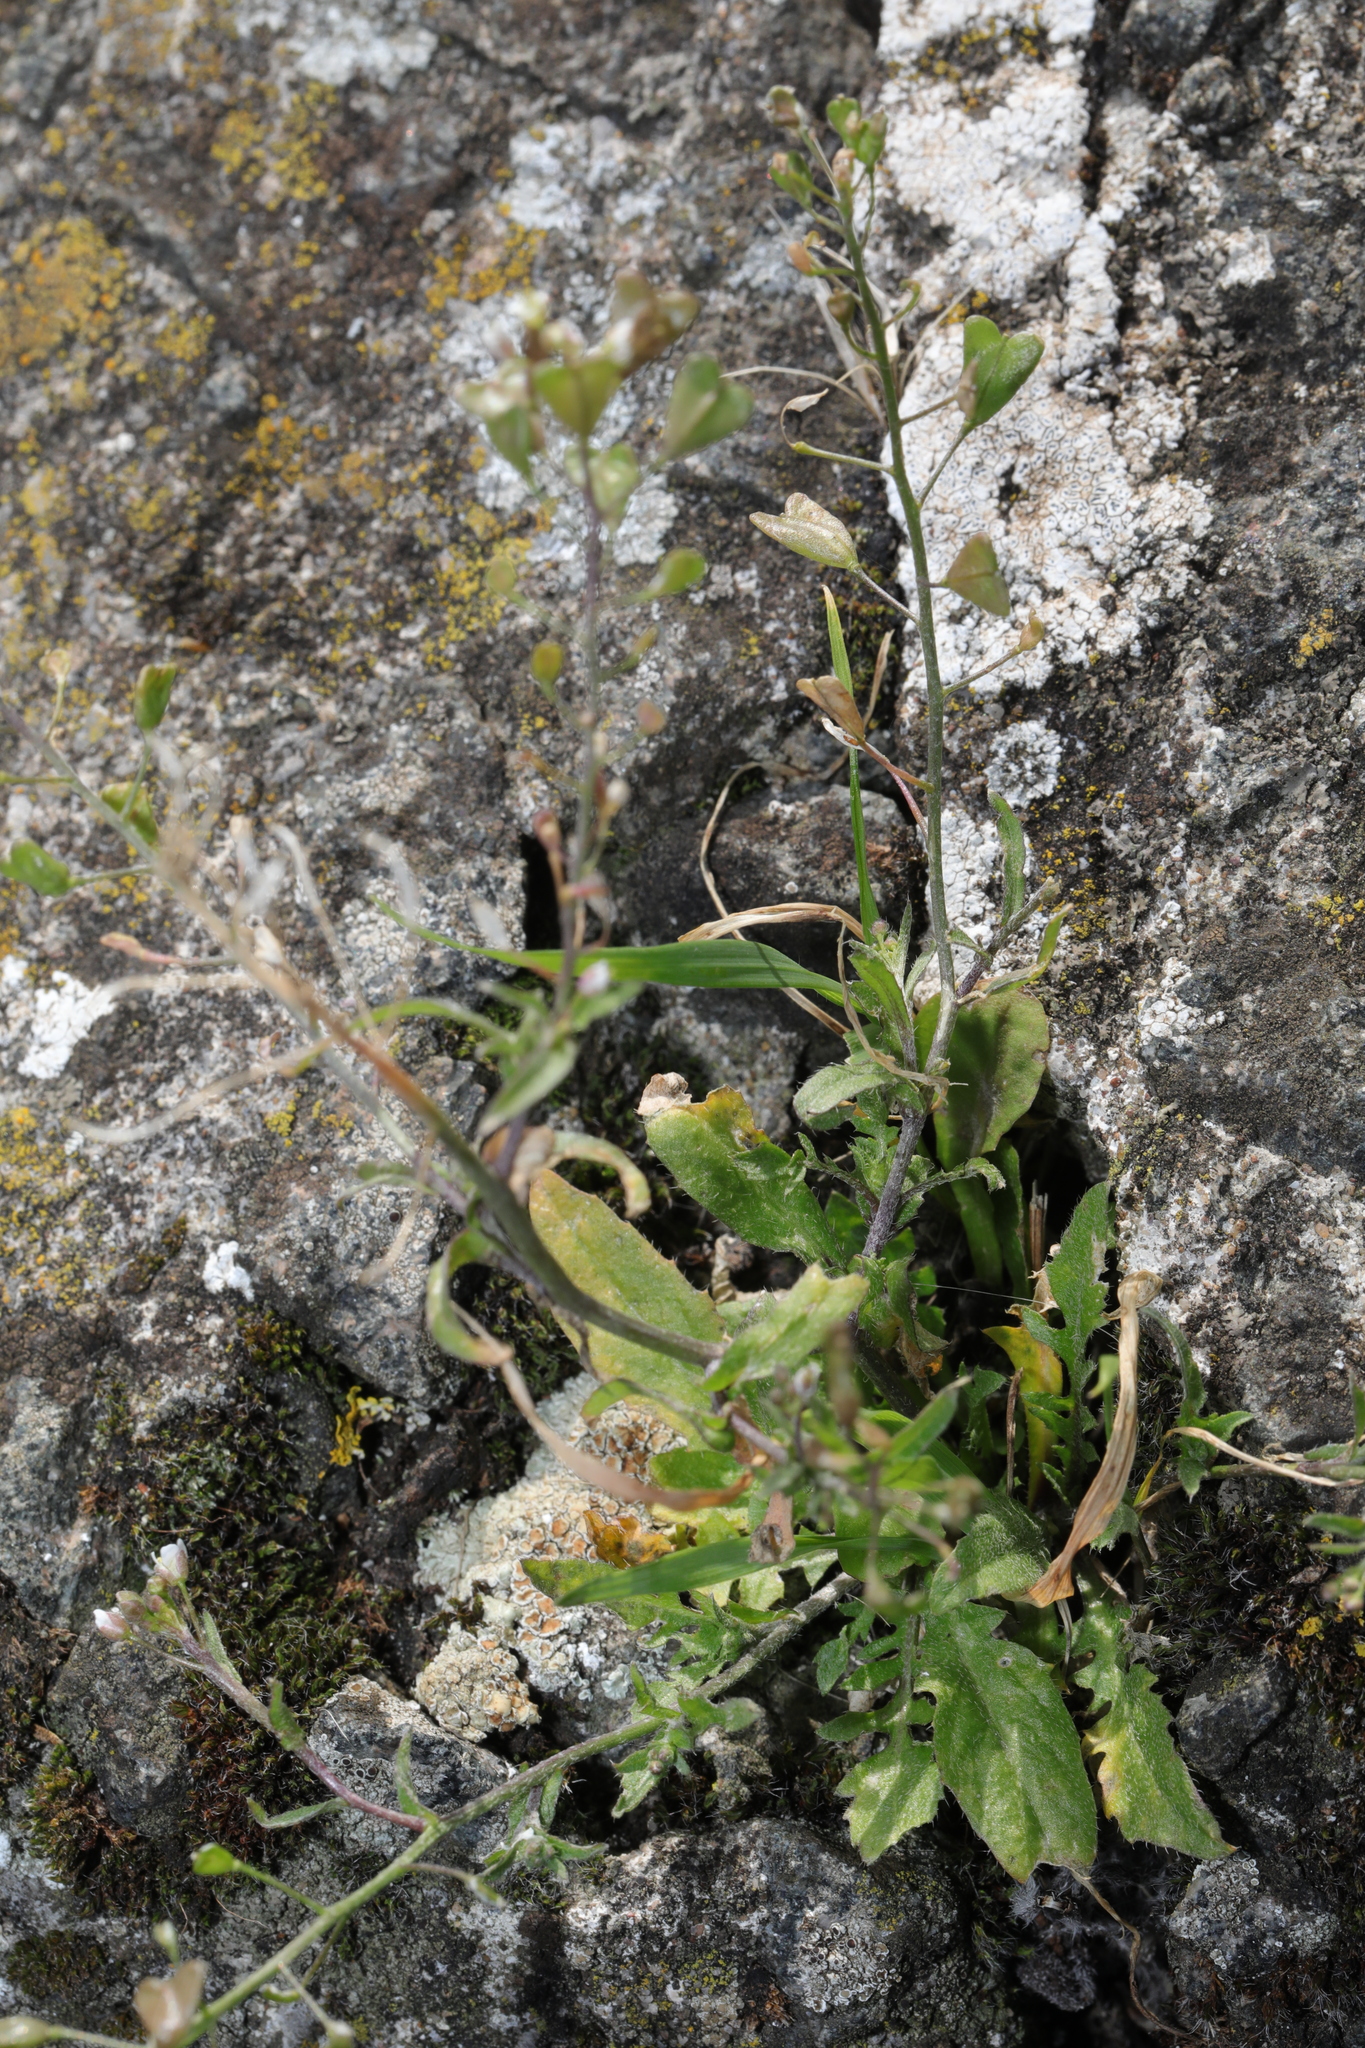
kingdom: Plantae
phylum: Tracheophyta
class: Magnoliopsida
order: Brassicales
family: Brassicaceae
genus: Capsella
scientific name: Capsella bursa-pastoris
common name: Shepherd's purse
